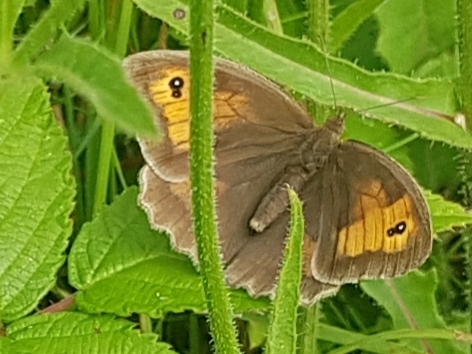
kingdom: Animalia
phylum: Arthropoda
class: Insecta
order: Lepidoptera
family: Nymphalidae
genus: Maniola
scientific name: Maniola jurtina
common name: Meadow brown
